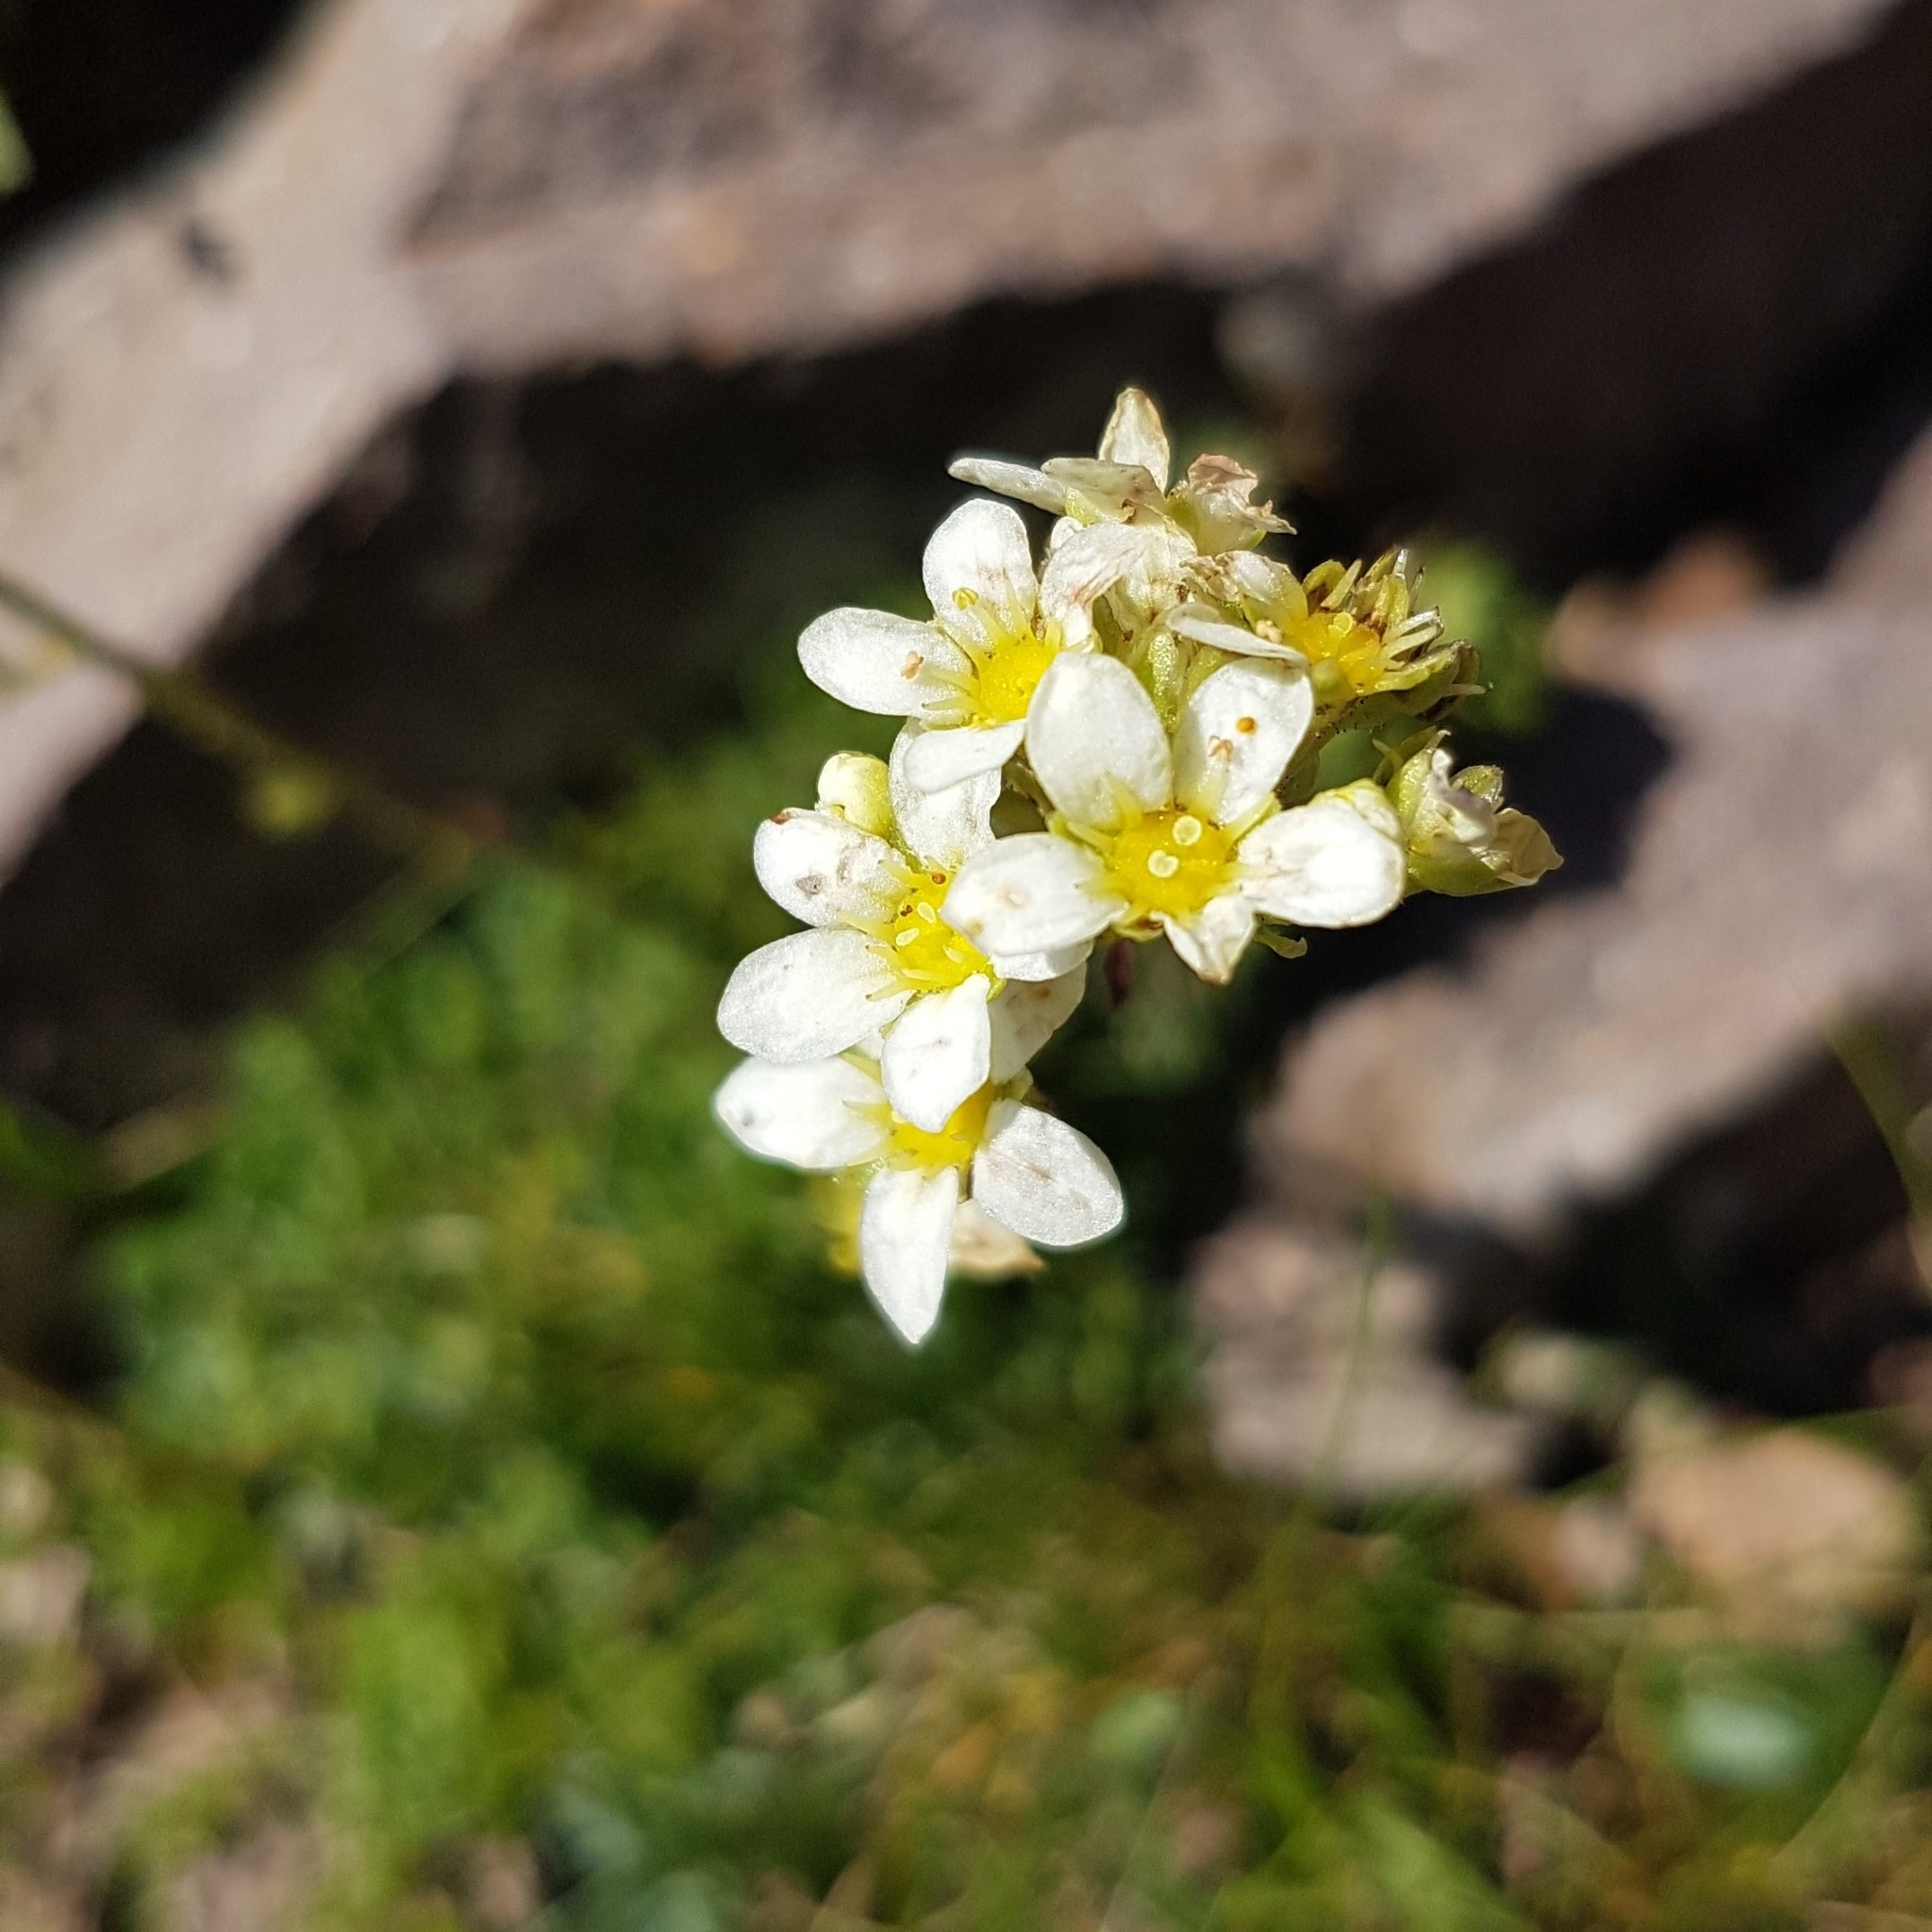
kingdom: Plantae
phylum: Tracheophyta
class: Magnoliopsida
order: Saxifragales
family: Saxifragaceae
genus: Saxifraga
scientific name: Saxifraga paniculata
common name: Livelong saxifrage
